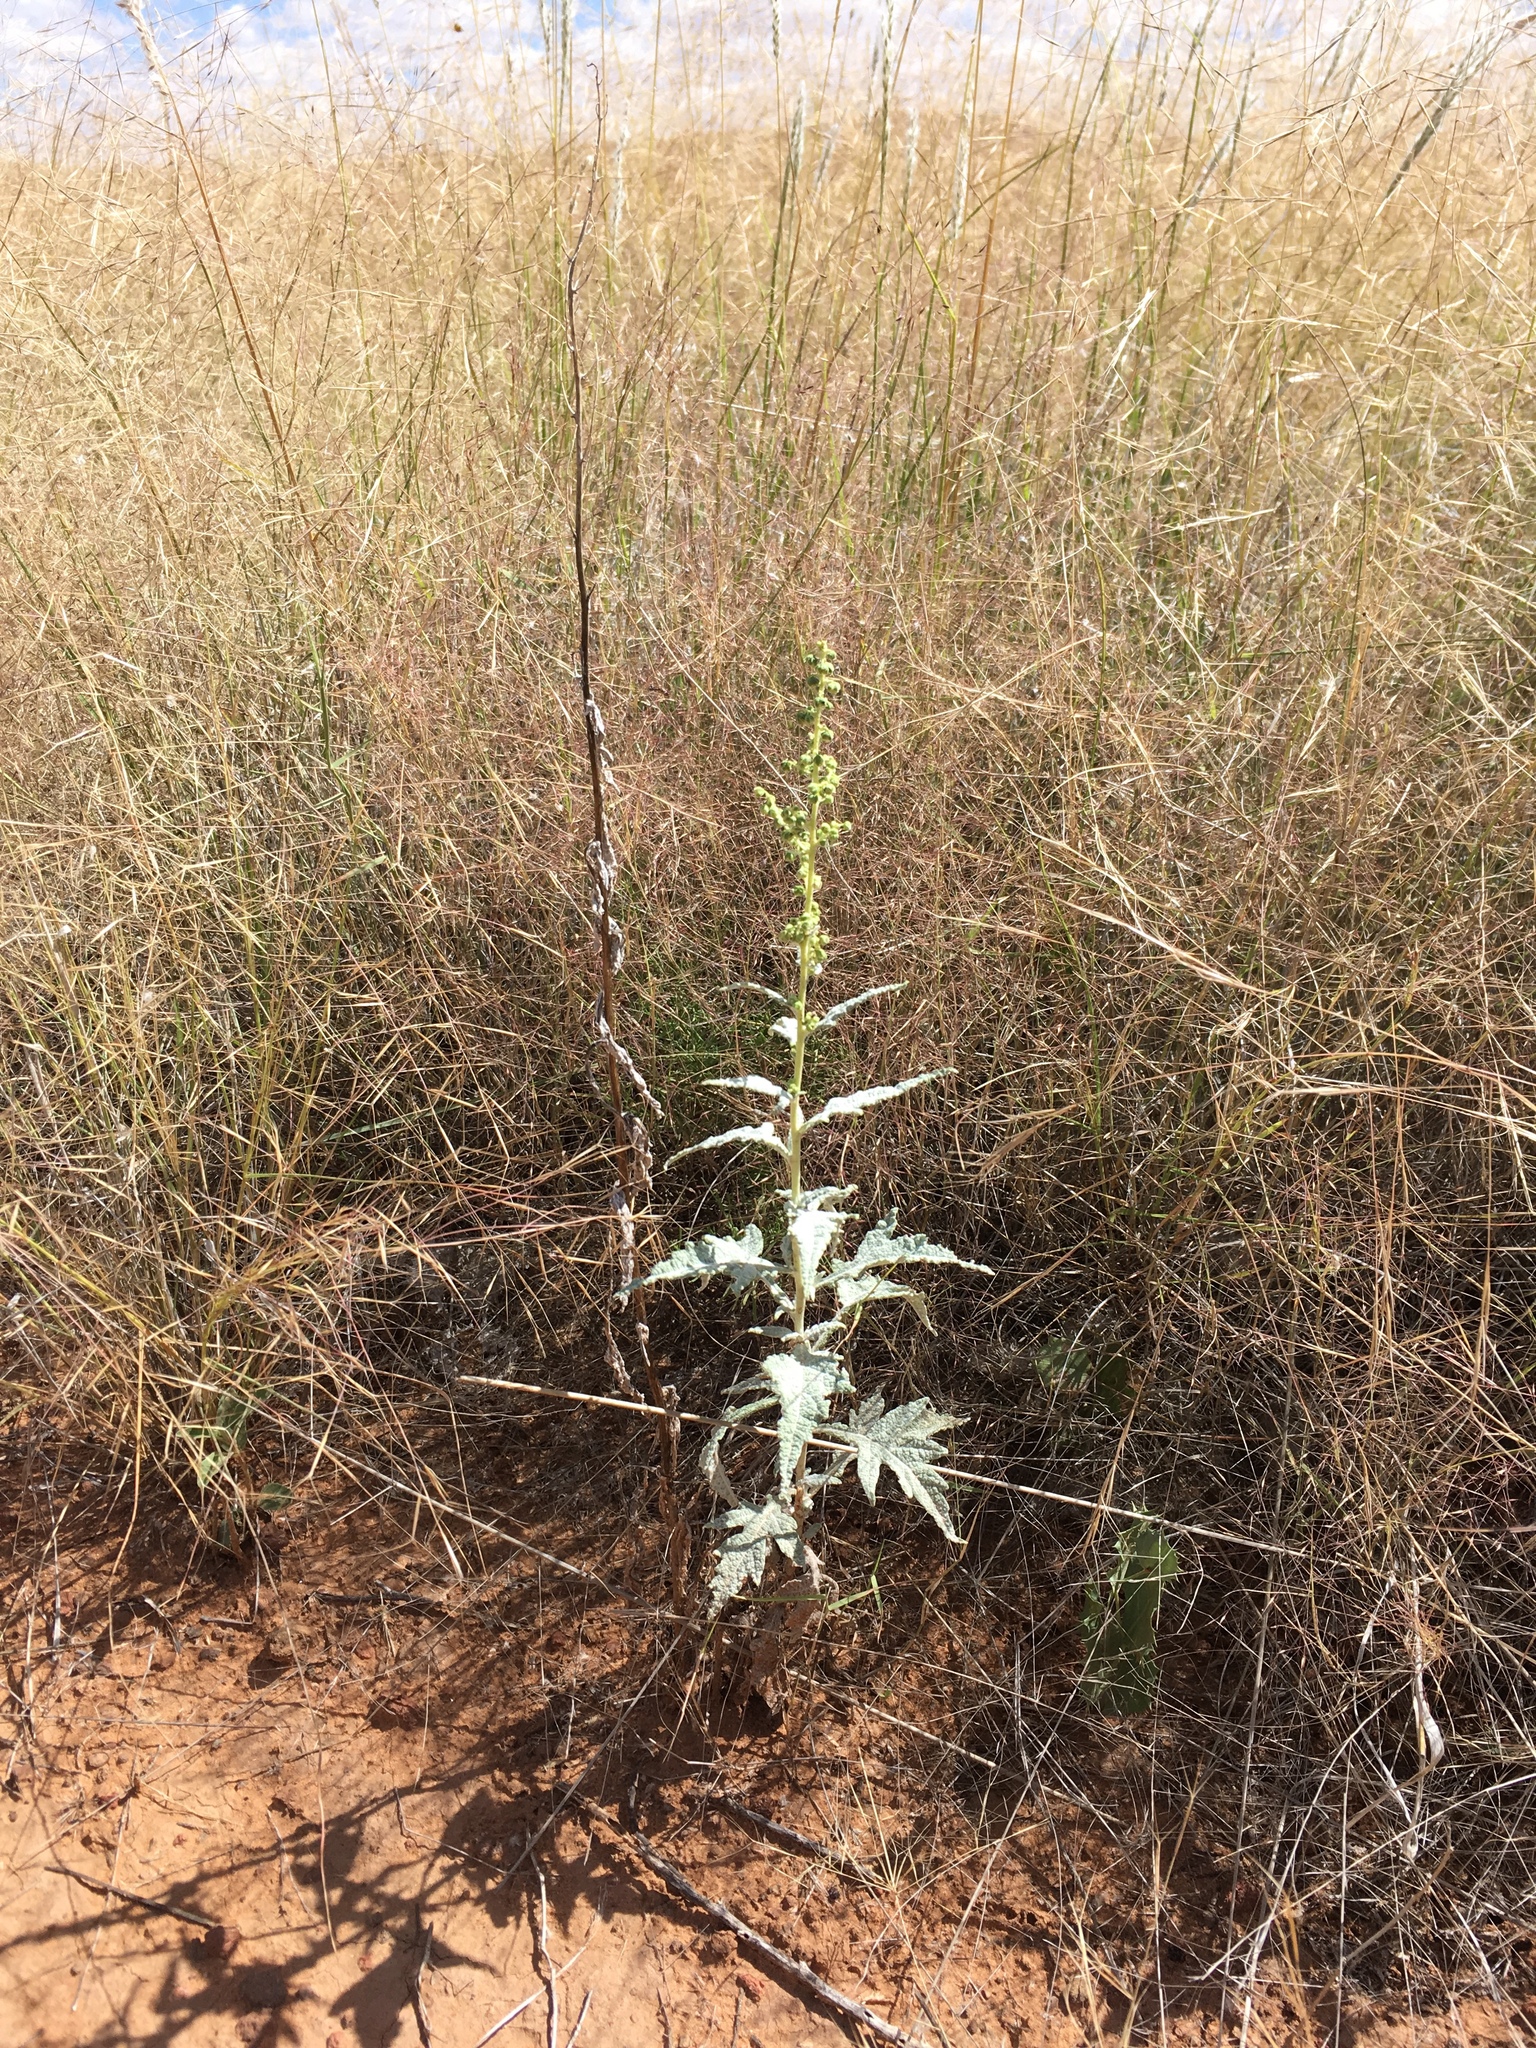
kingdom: Plantae
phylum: Tracheophyta
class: Magnoliopsida
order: Asterales
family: Asteraceae
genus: Euphrosyne
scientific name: Euphrosyne dealbata
